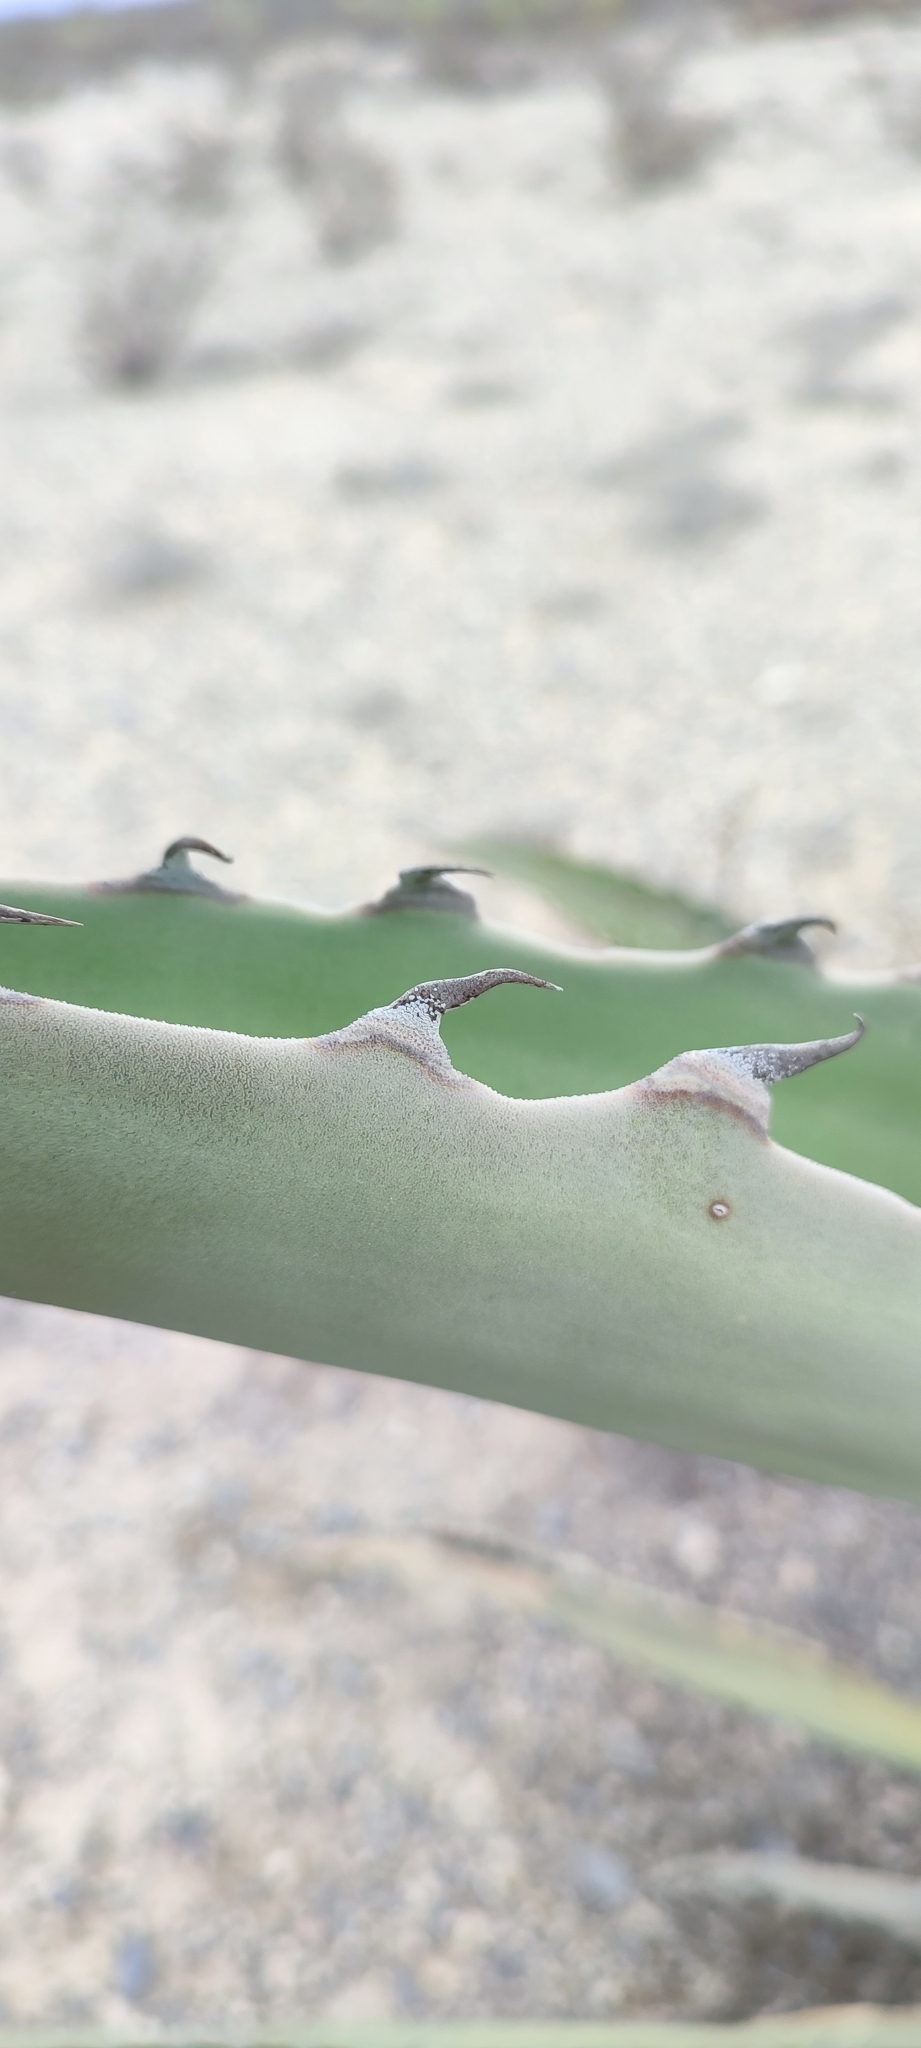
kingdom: Plantae
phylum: Tracheophyta
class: Liliopsida
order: Asparagales
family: Asparagaceae
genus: Agave
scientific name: Agave asperrima
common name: Rough agave
